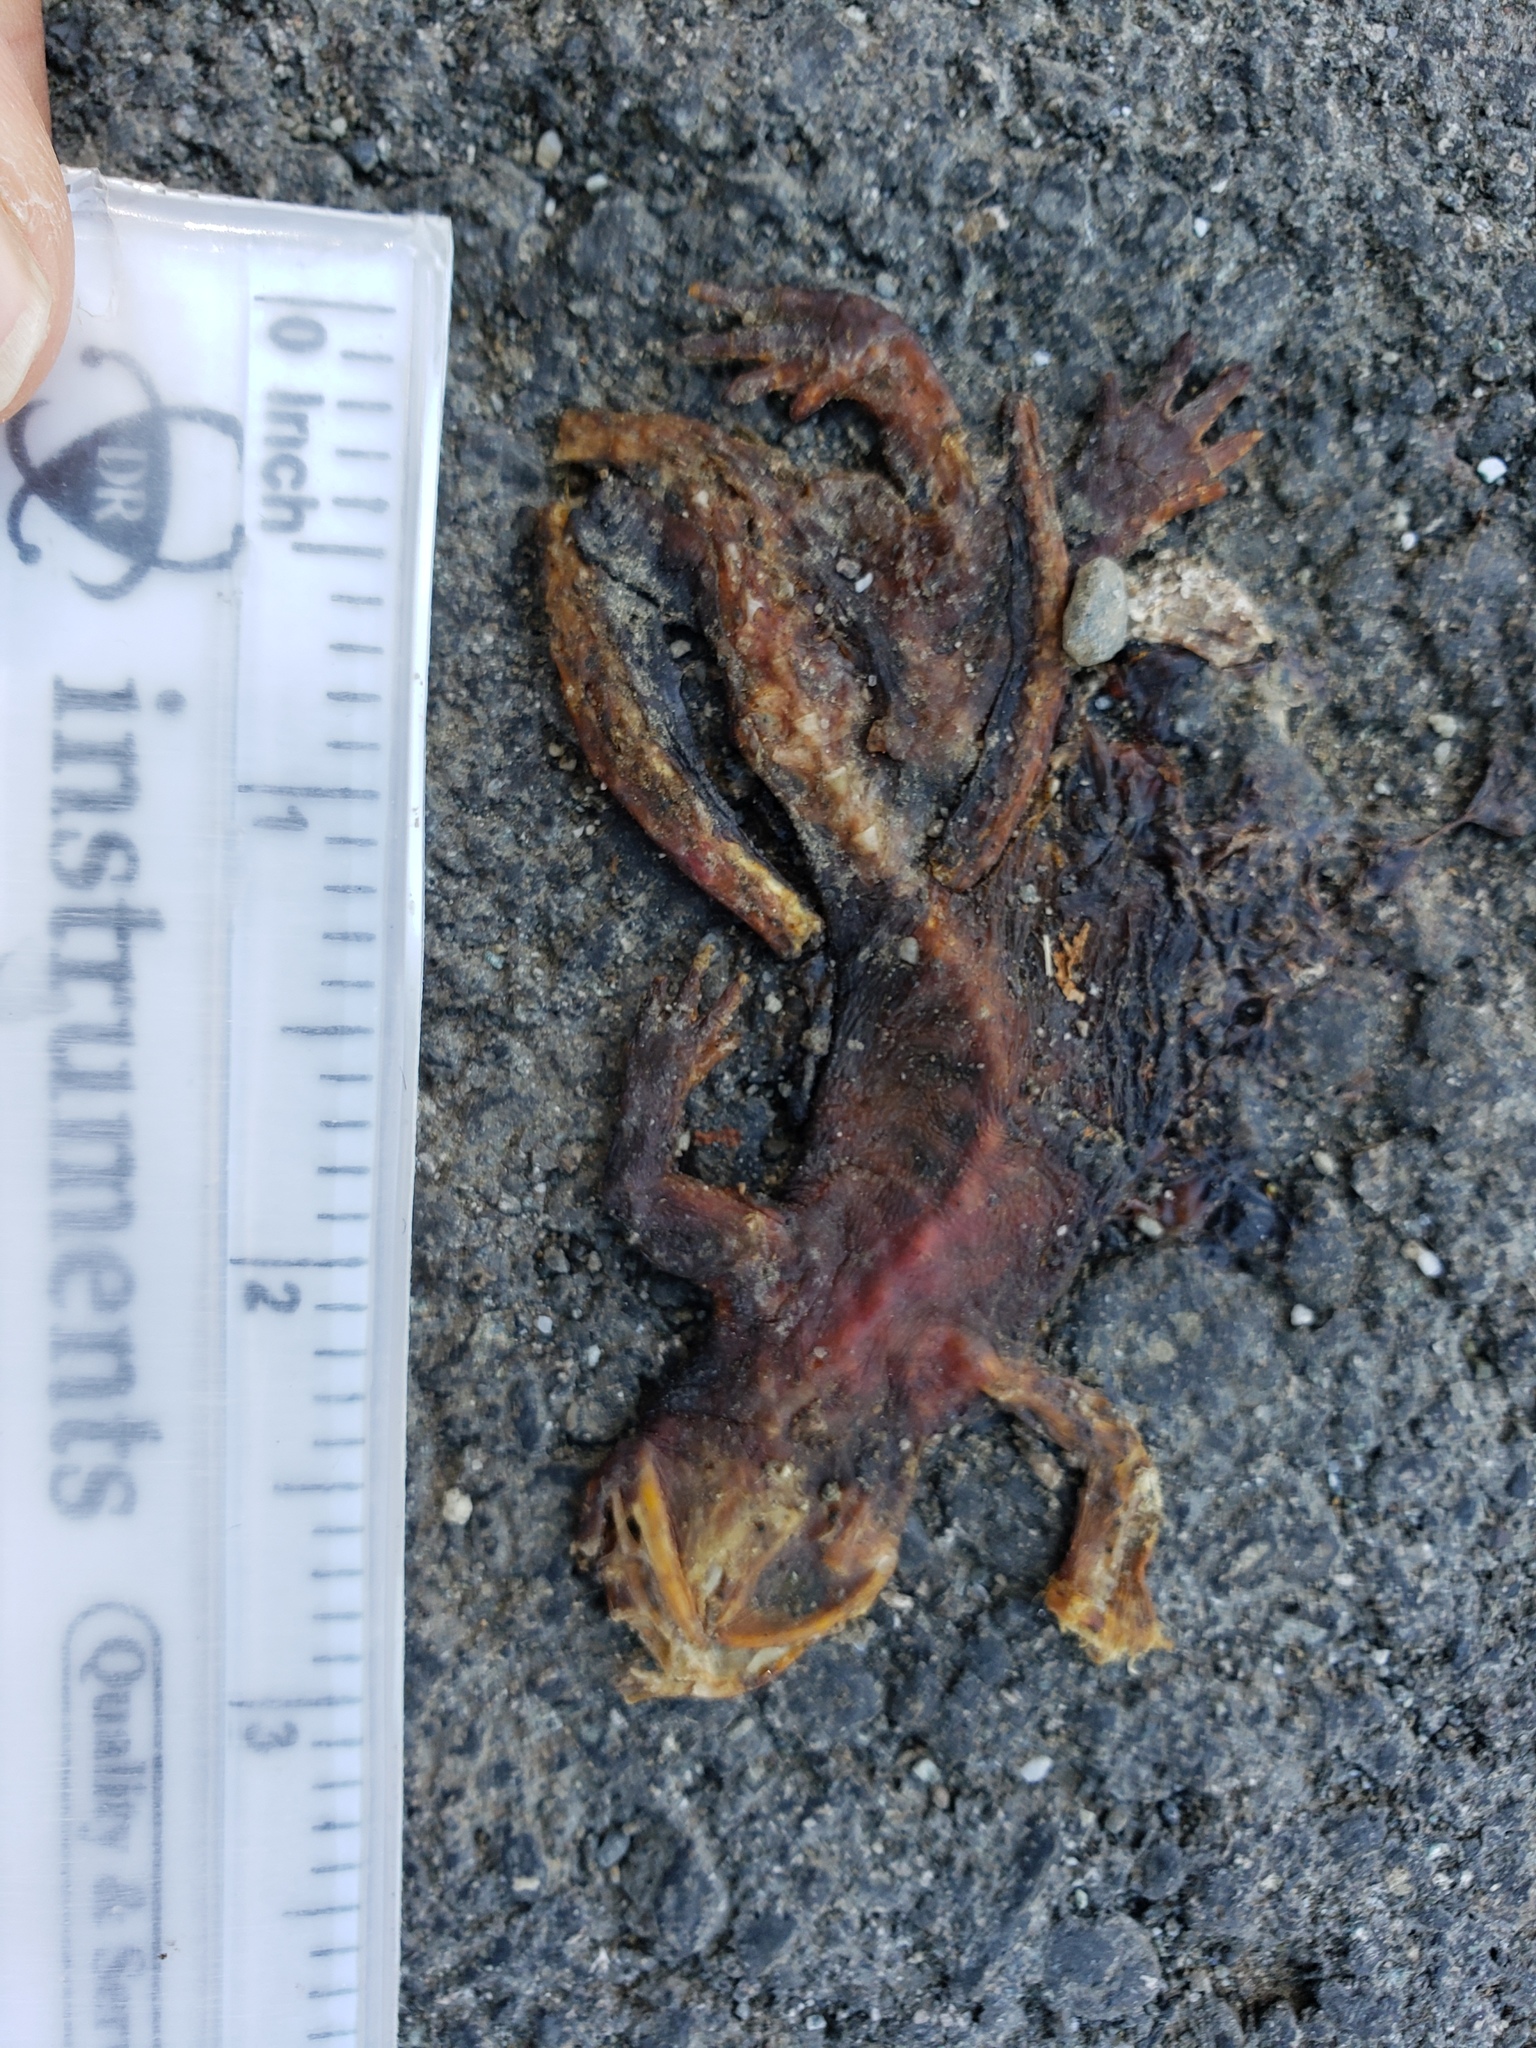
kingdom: Animalia
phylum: Chordata
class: Amphibia
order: Caudata
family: Salamandridae
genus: Taricha
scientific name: Taricha
